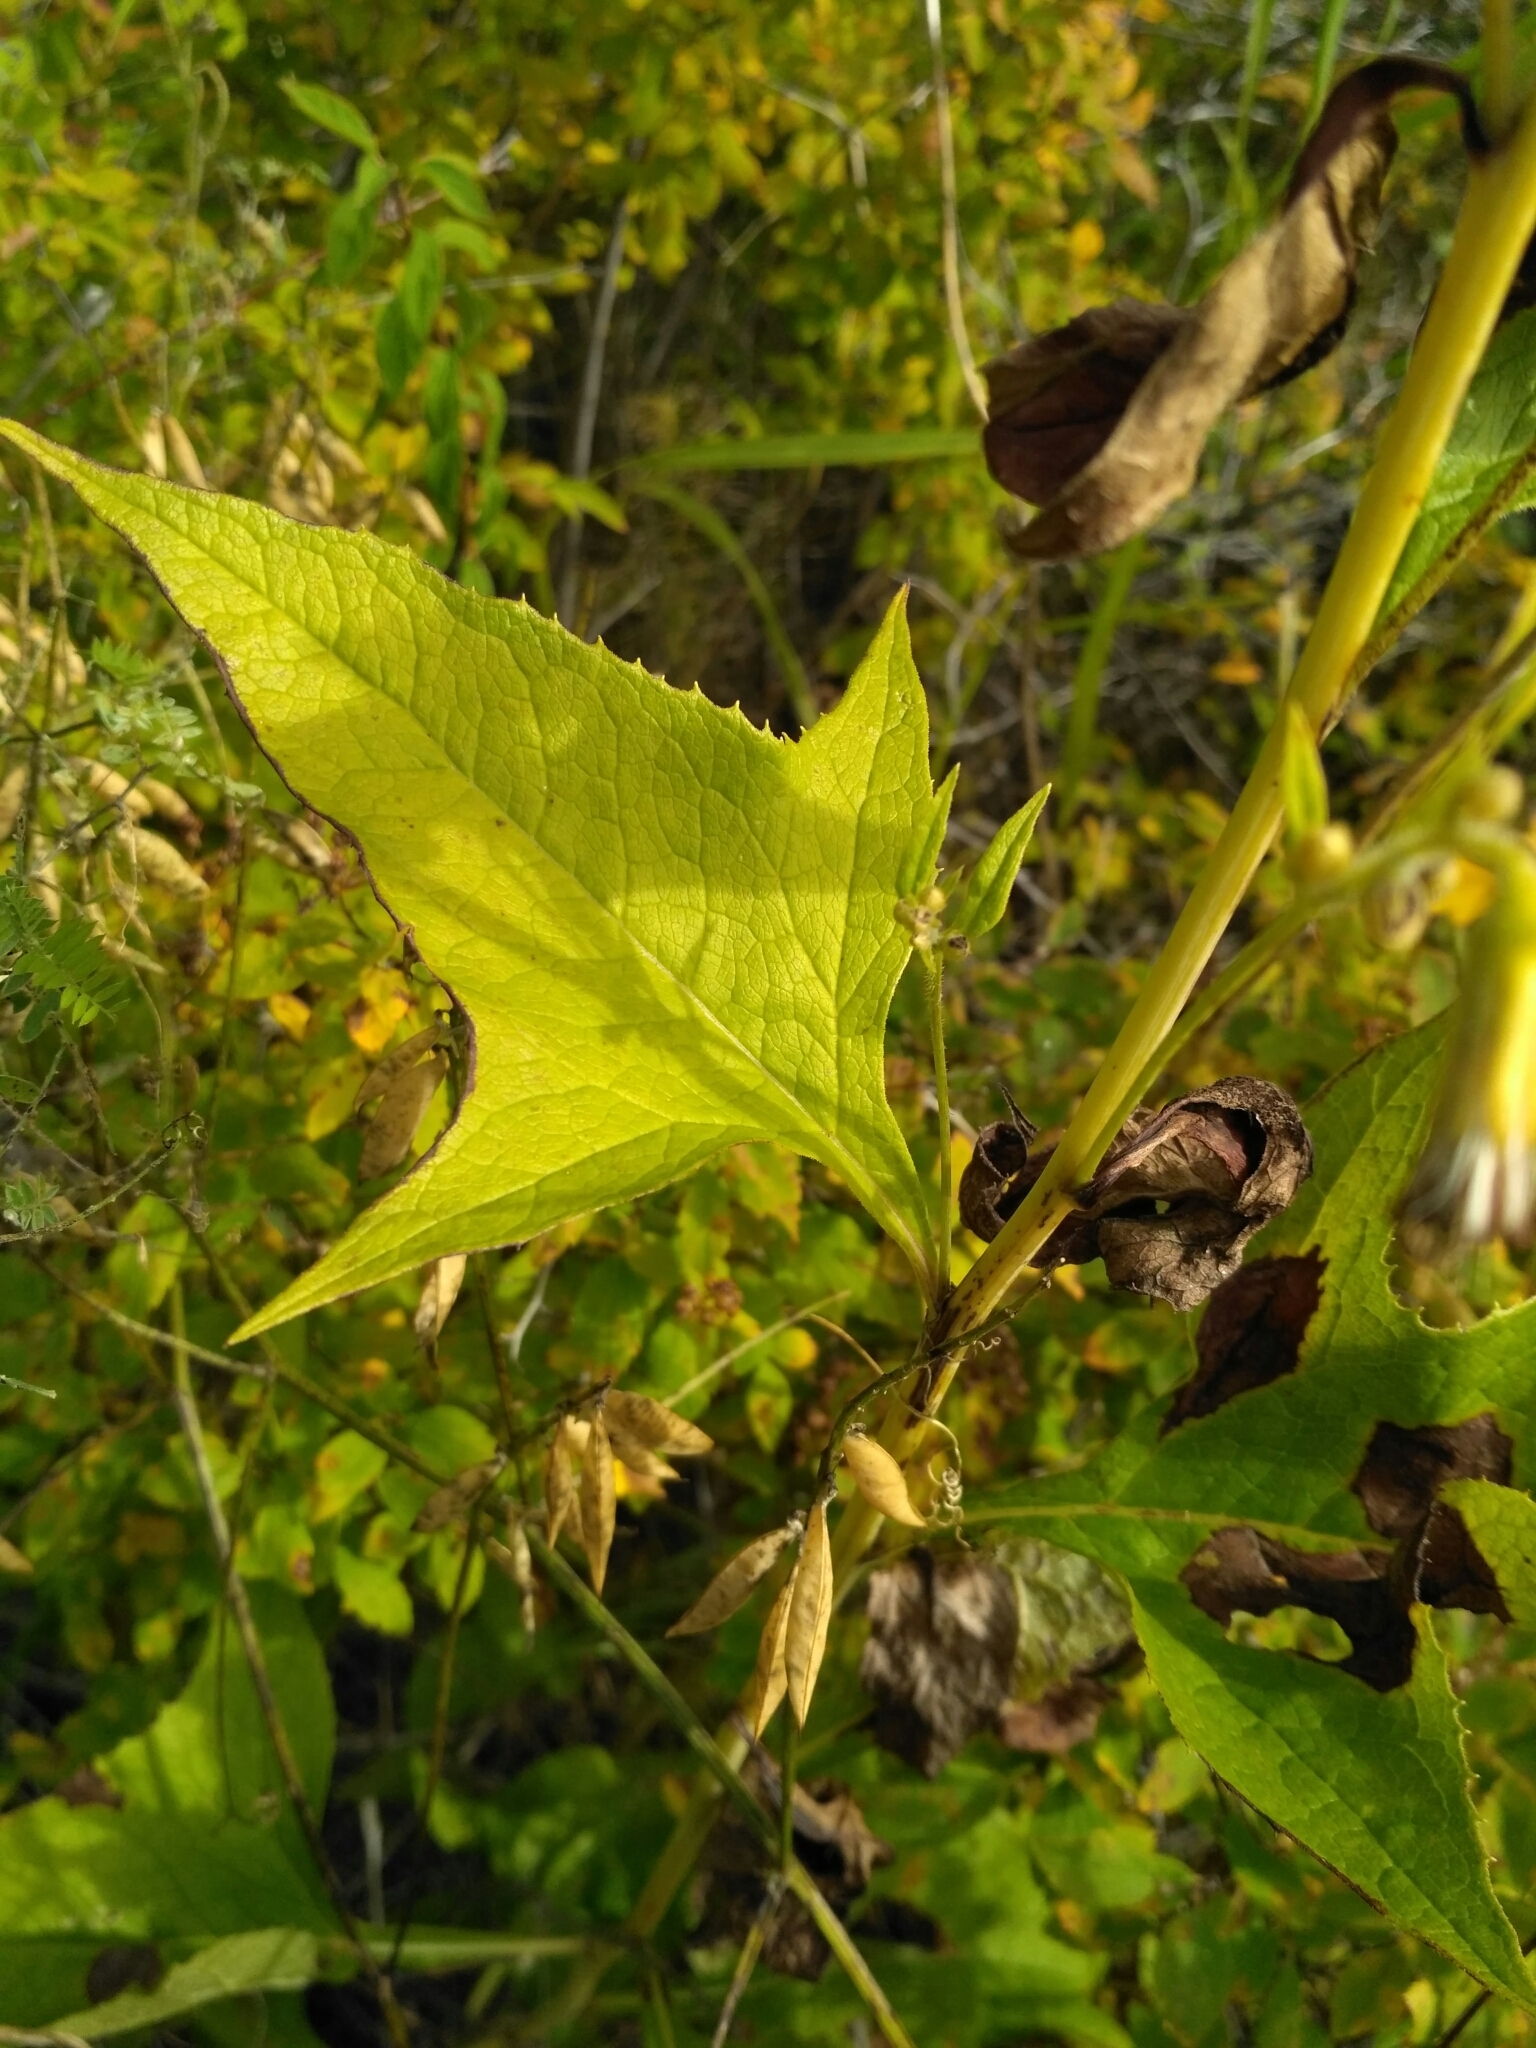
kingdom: Plantae
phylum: Tracheophyta
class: Magnoliopsida
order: Asterales
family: Asteraceae
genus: Parasenecio
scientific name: Parasenecio hastatus
